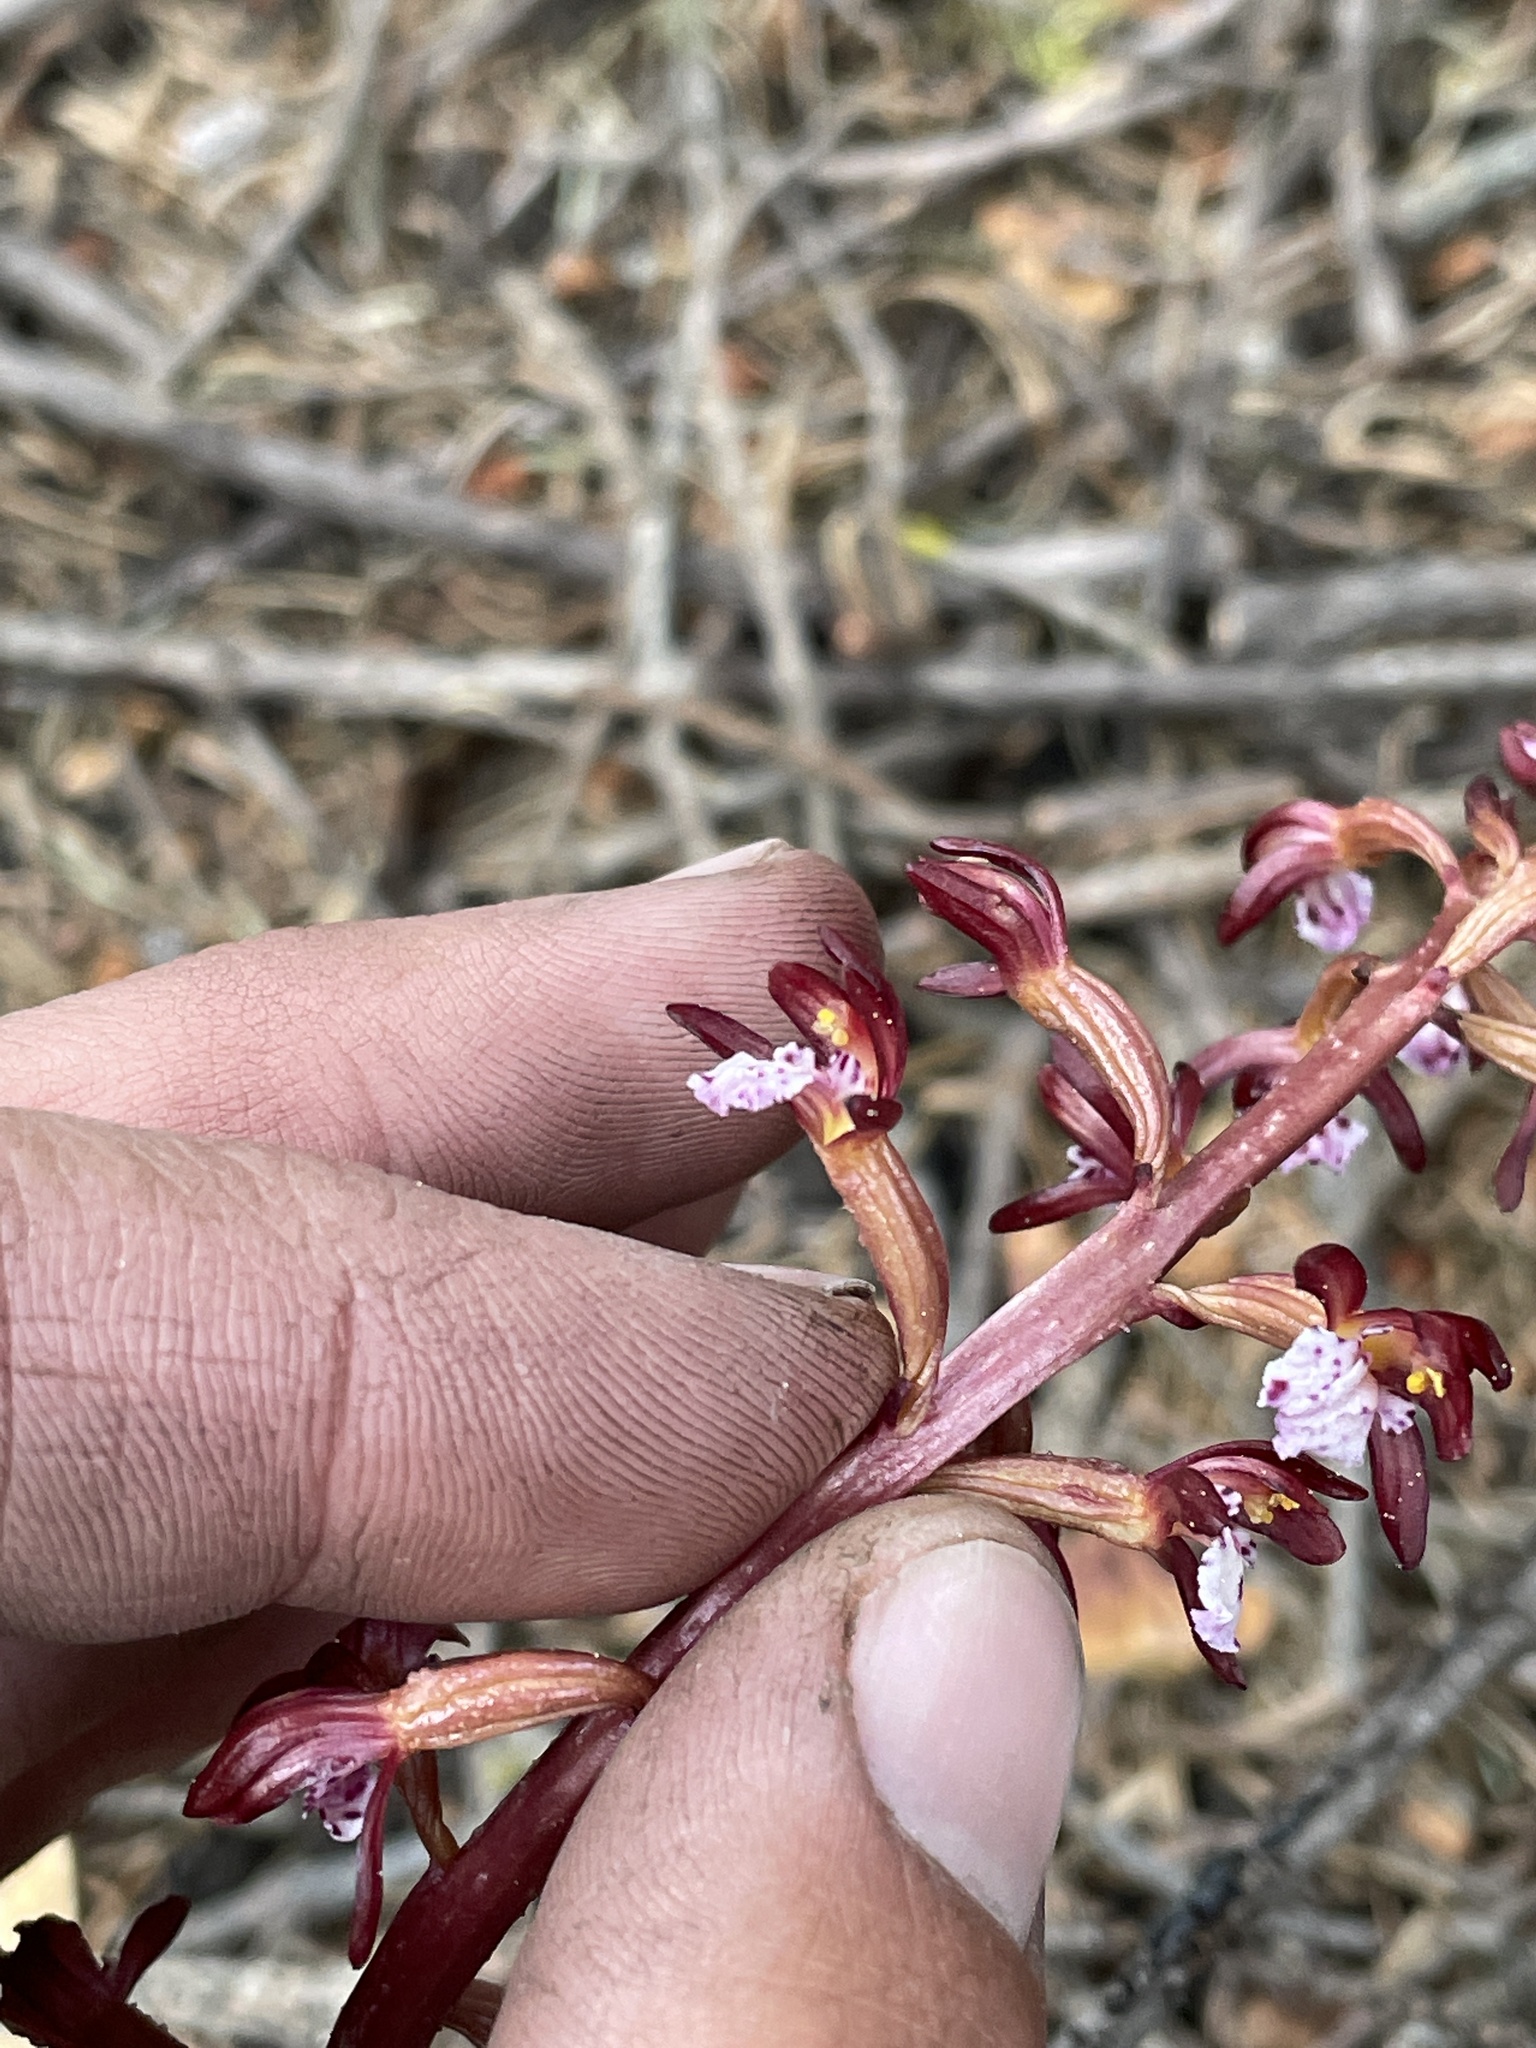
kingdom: Plantae
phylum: Tracheophyta
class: Liliopsida
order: Asparagales
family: Orchidaceae
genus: Corallorhiza
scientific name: Corallorhiza maculata
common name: Spotted coralroot
